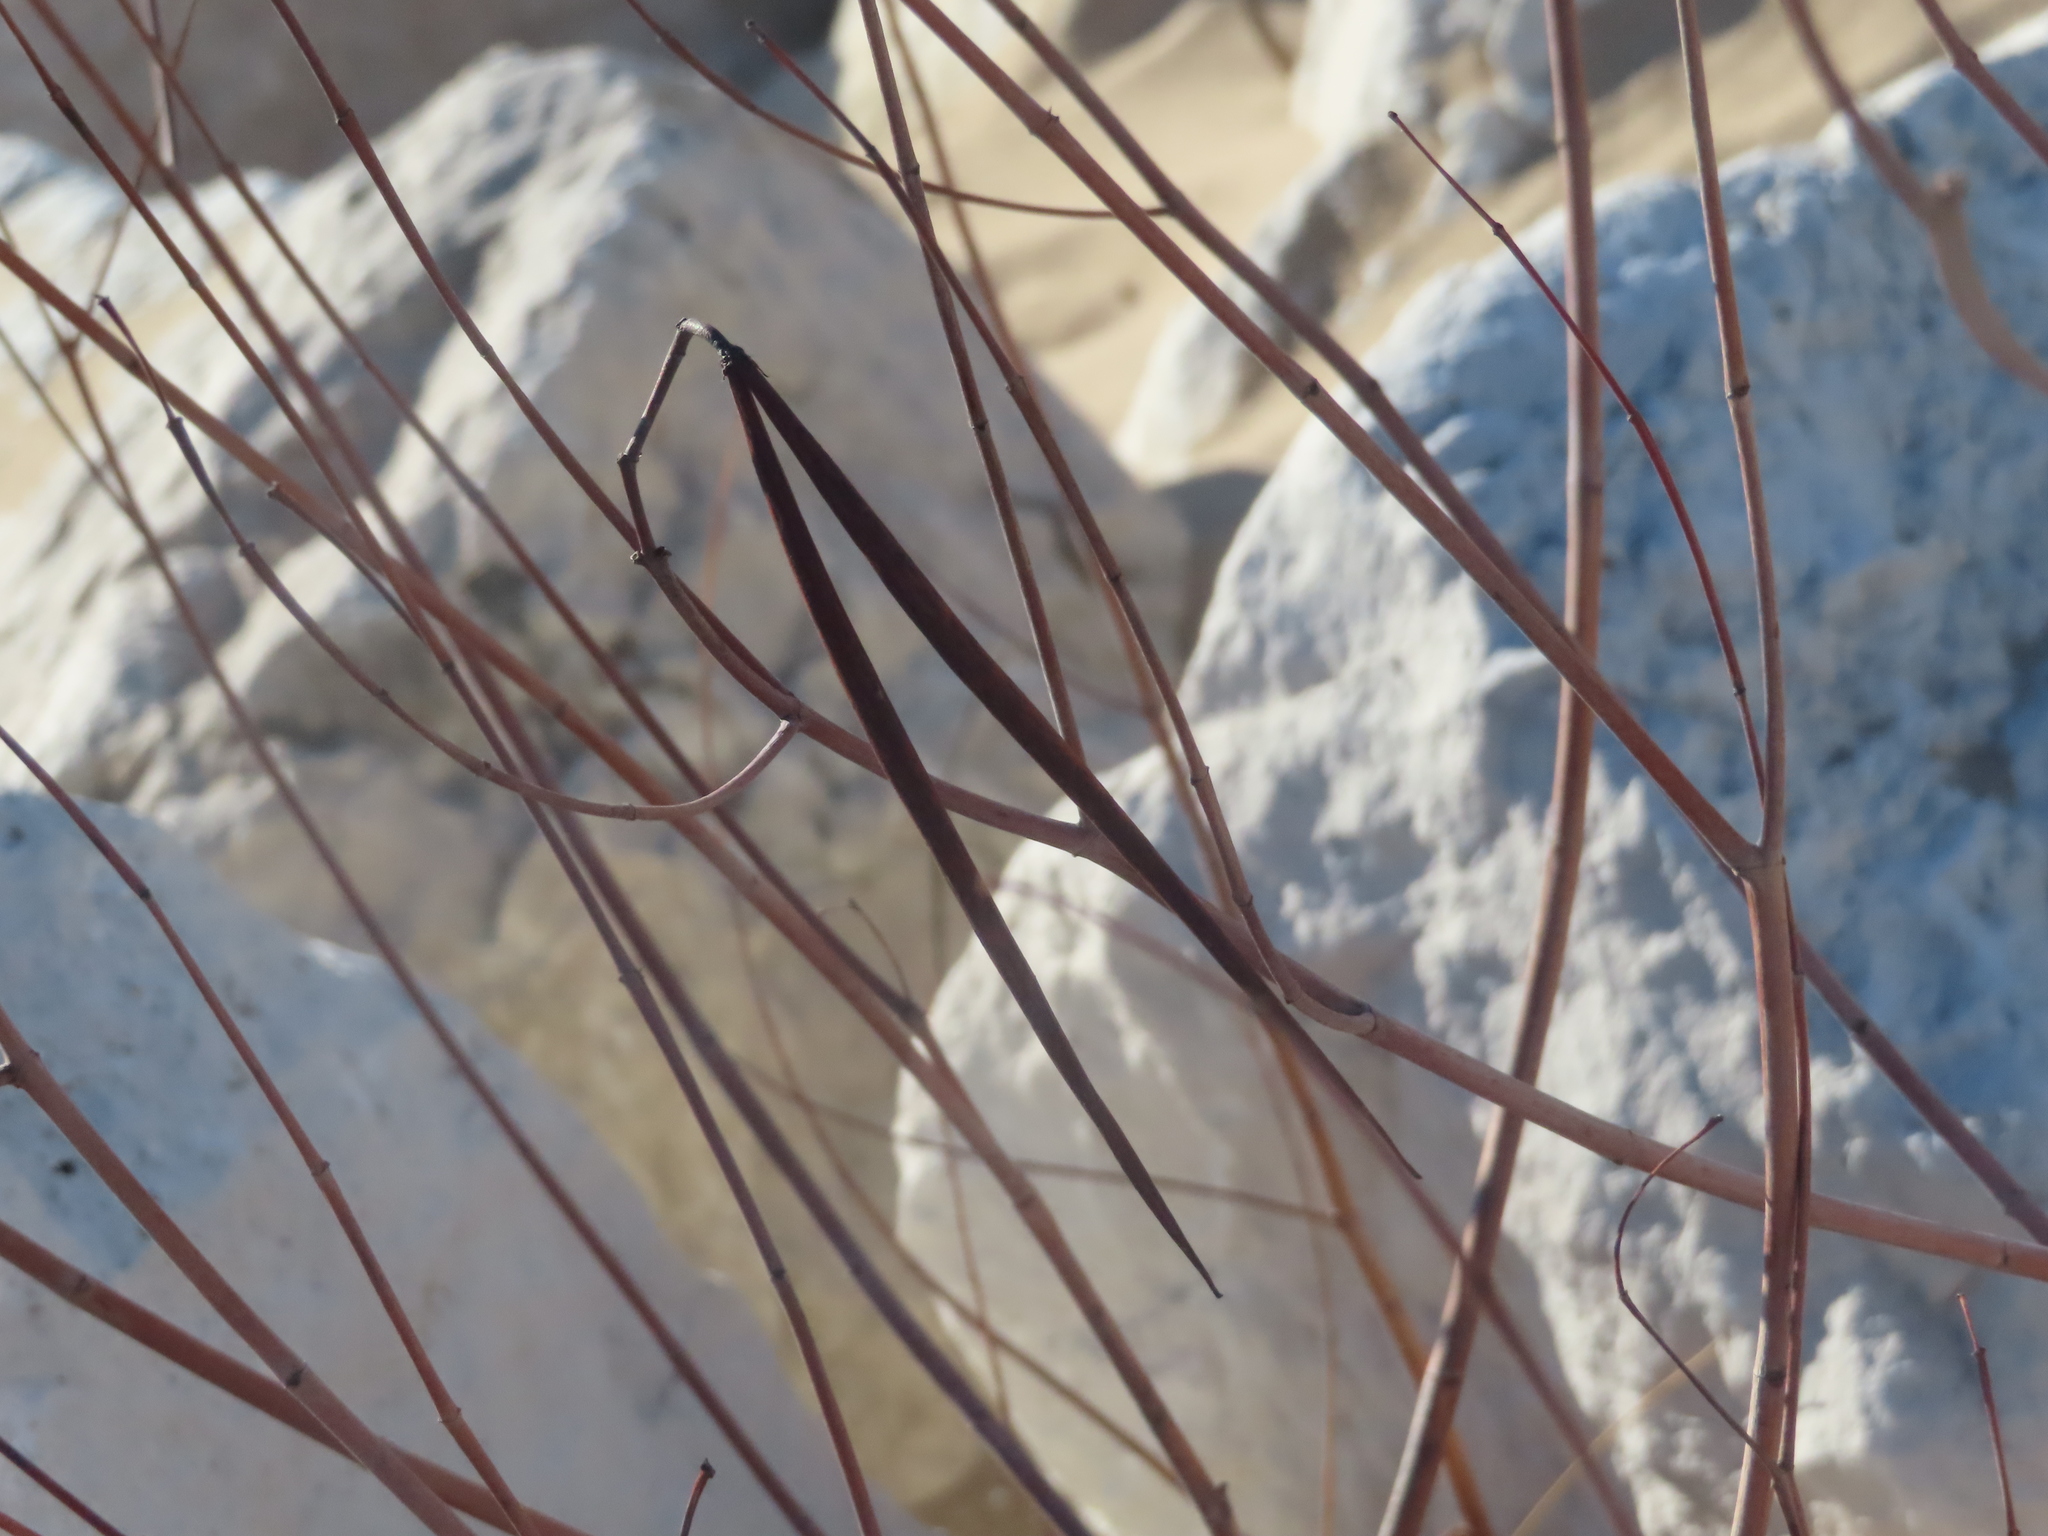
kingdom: Plantae
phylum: Tracheophyta
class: Magnoliopsida
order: Gentianales
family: Apocynaceae
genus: Apocynum
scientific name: Apocynum cannabinum
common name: Hemp dogbane
